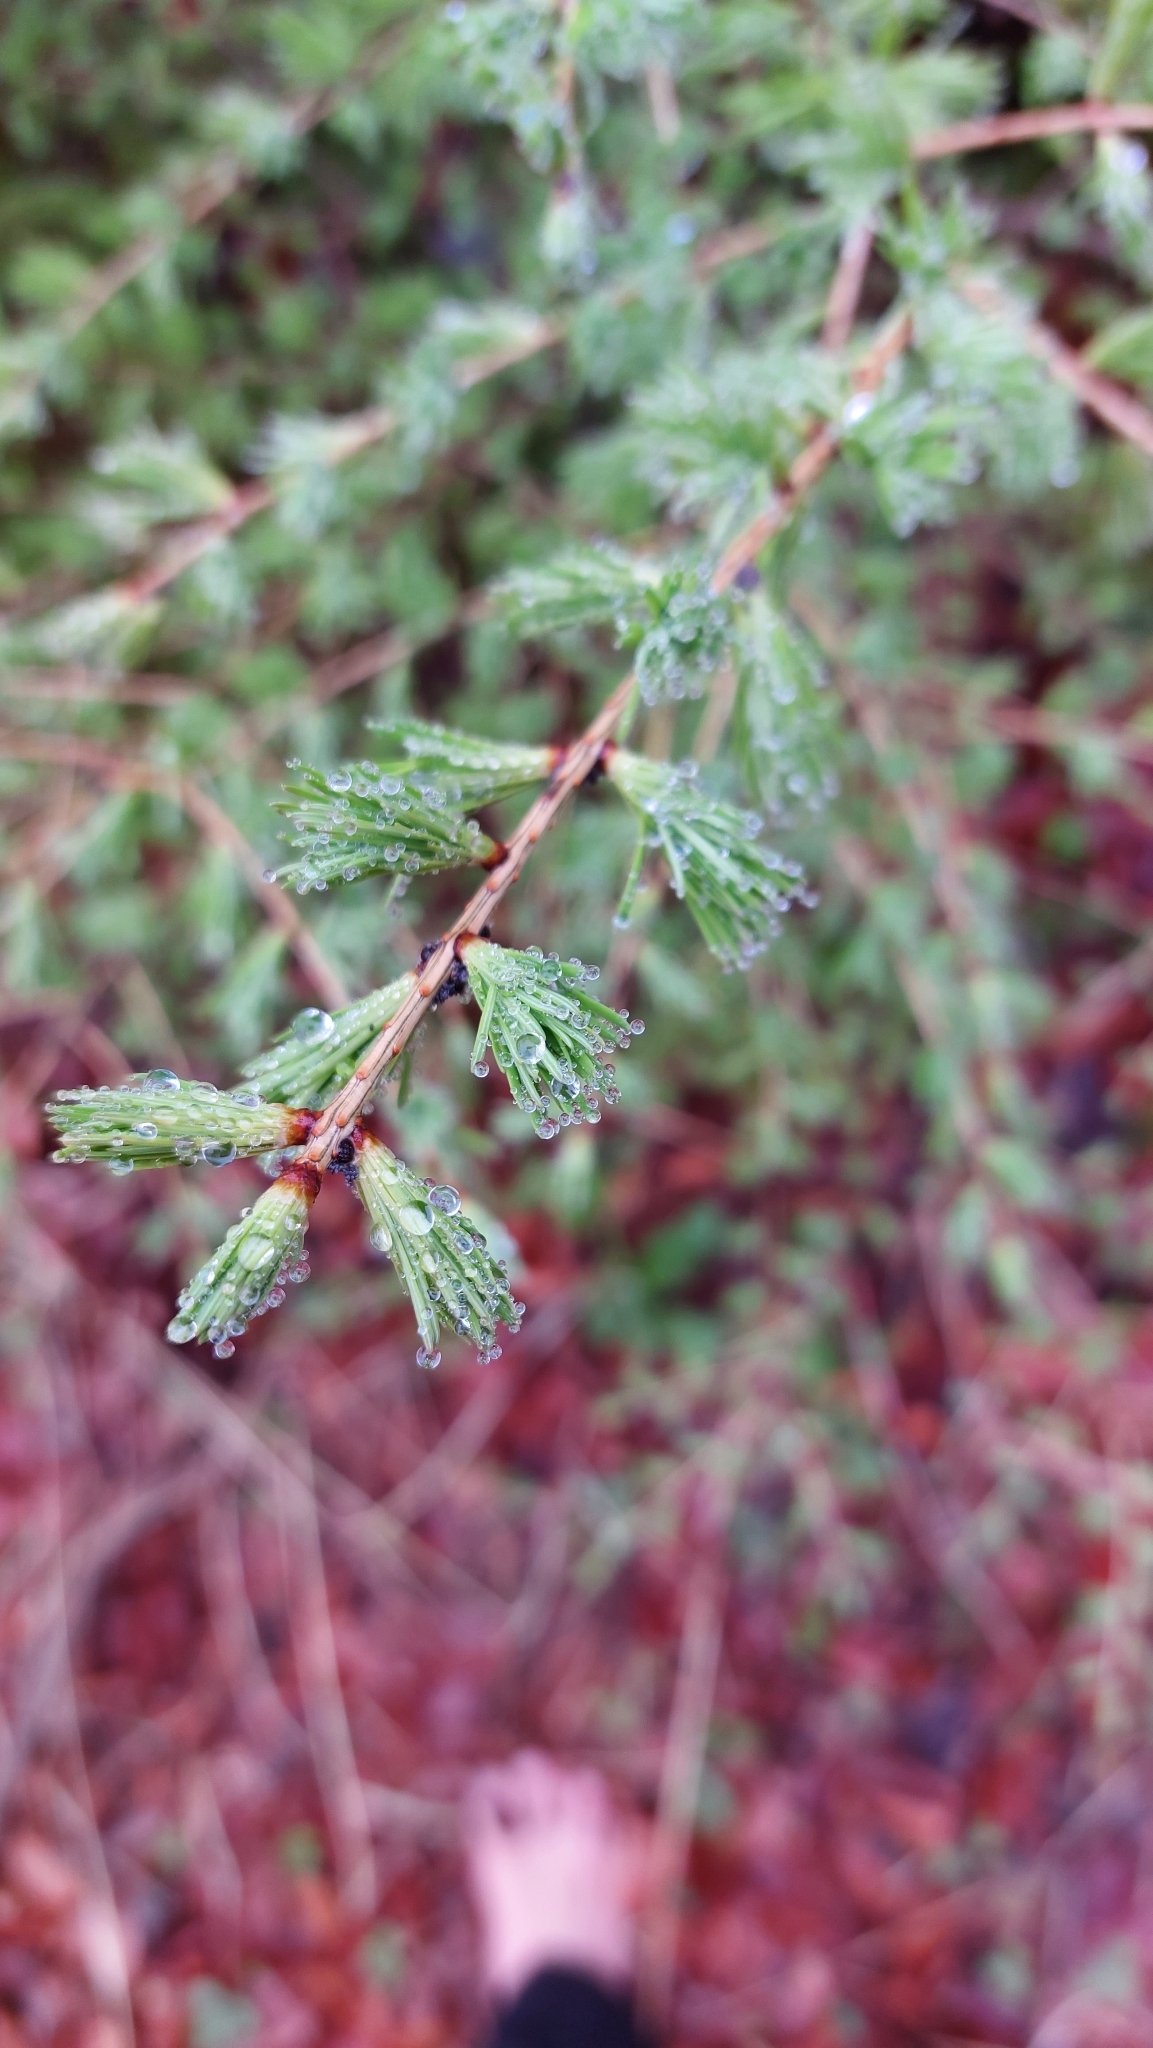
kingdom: Plantae
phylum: Tracheophyta
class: Pinopsida
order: Pinales
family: Pinaceae
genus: Larix
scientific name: Larix decidua
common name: European larch
